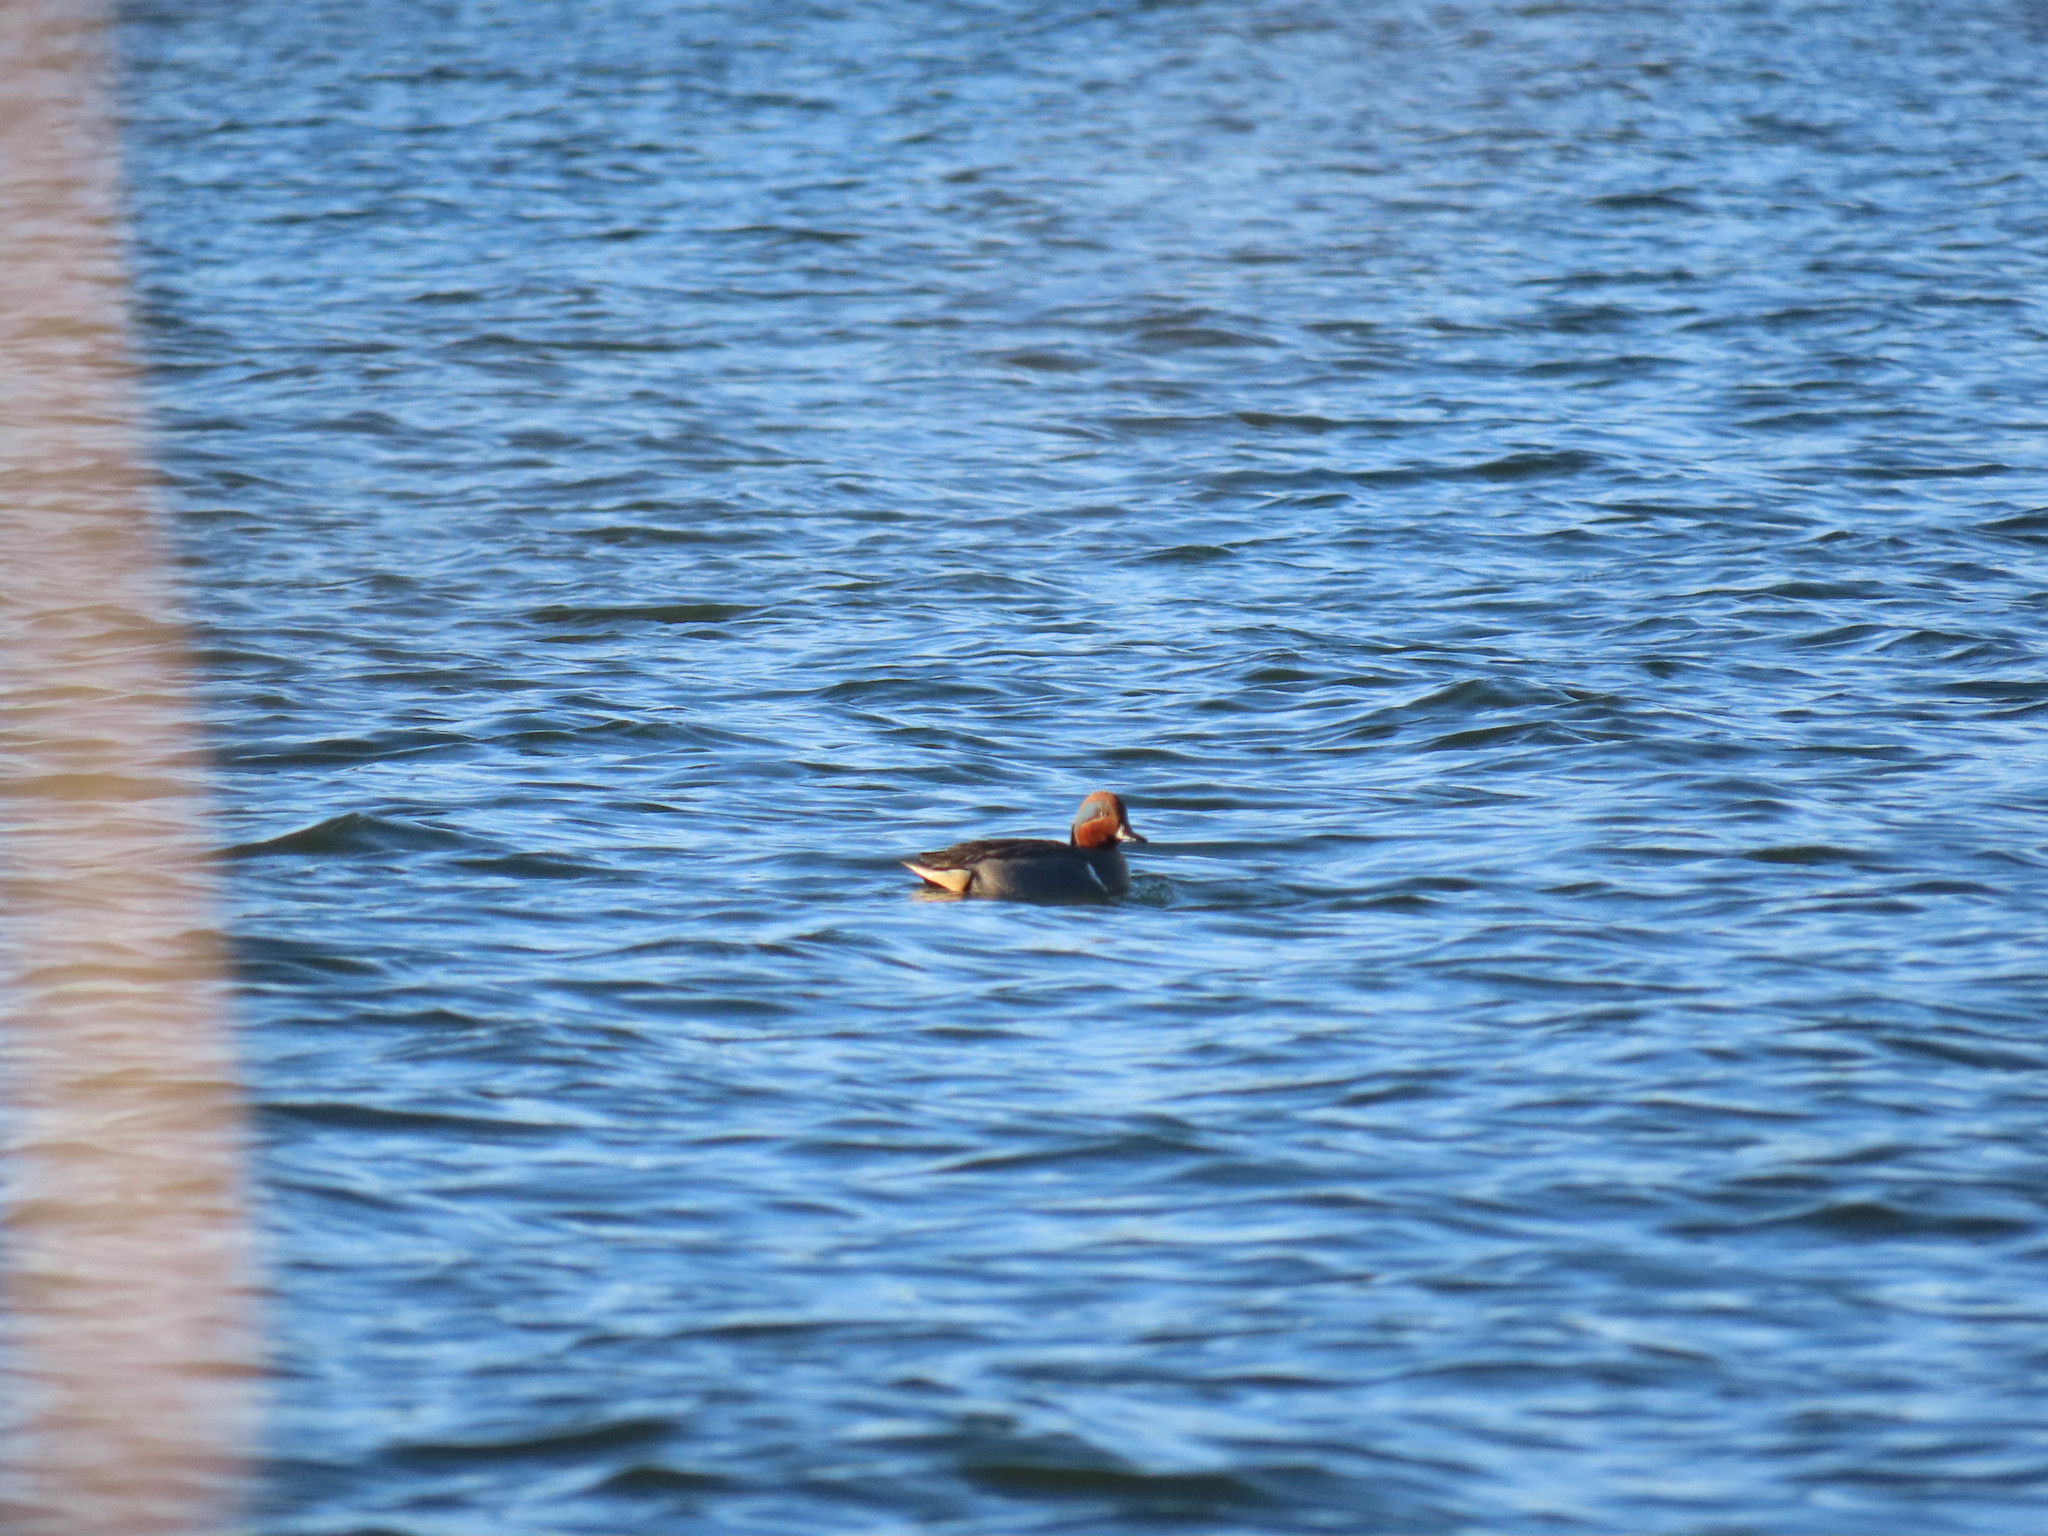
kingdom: Animalia
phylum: Chordata
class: Aves
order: Anseriformes
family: Anatidae
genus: Anas
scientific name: Anas crecca
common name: Eurasian teal
